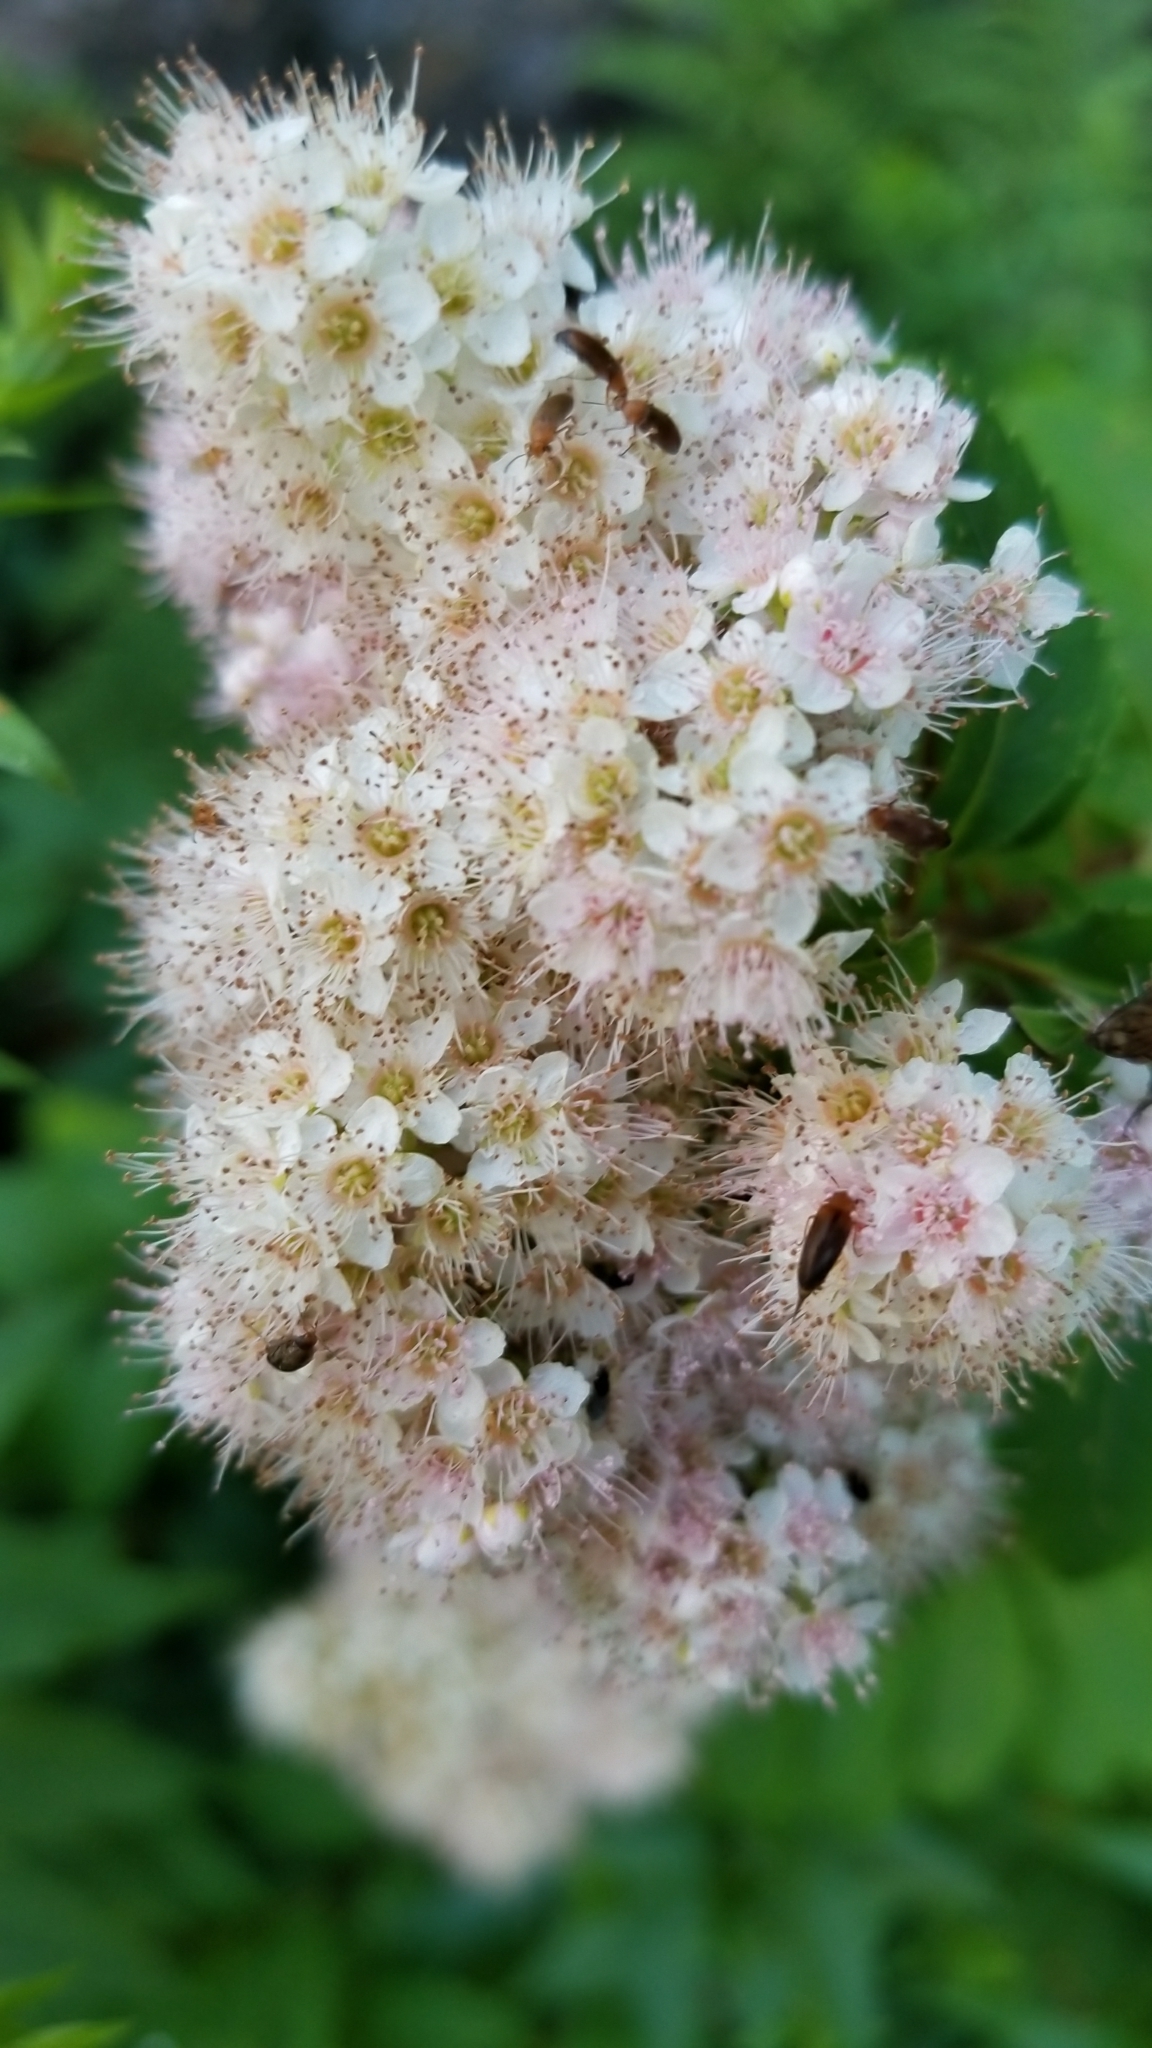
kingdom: Plantae
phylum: Tracheophyta
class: Magnoliopsida
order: Rosales
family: Rosaceae
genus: Spiraea
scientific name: Spiraea alba
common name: Pale bridewort
